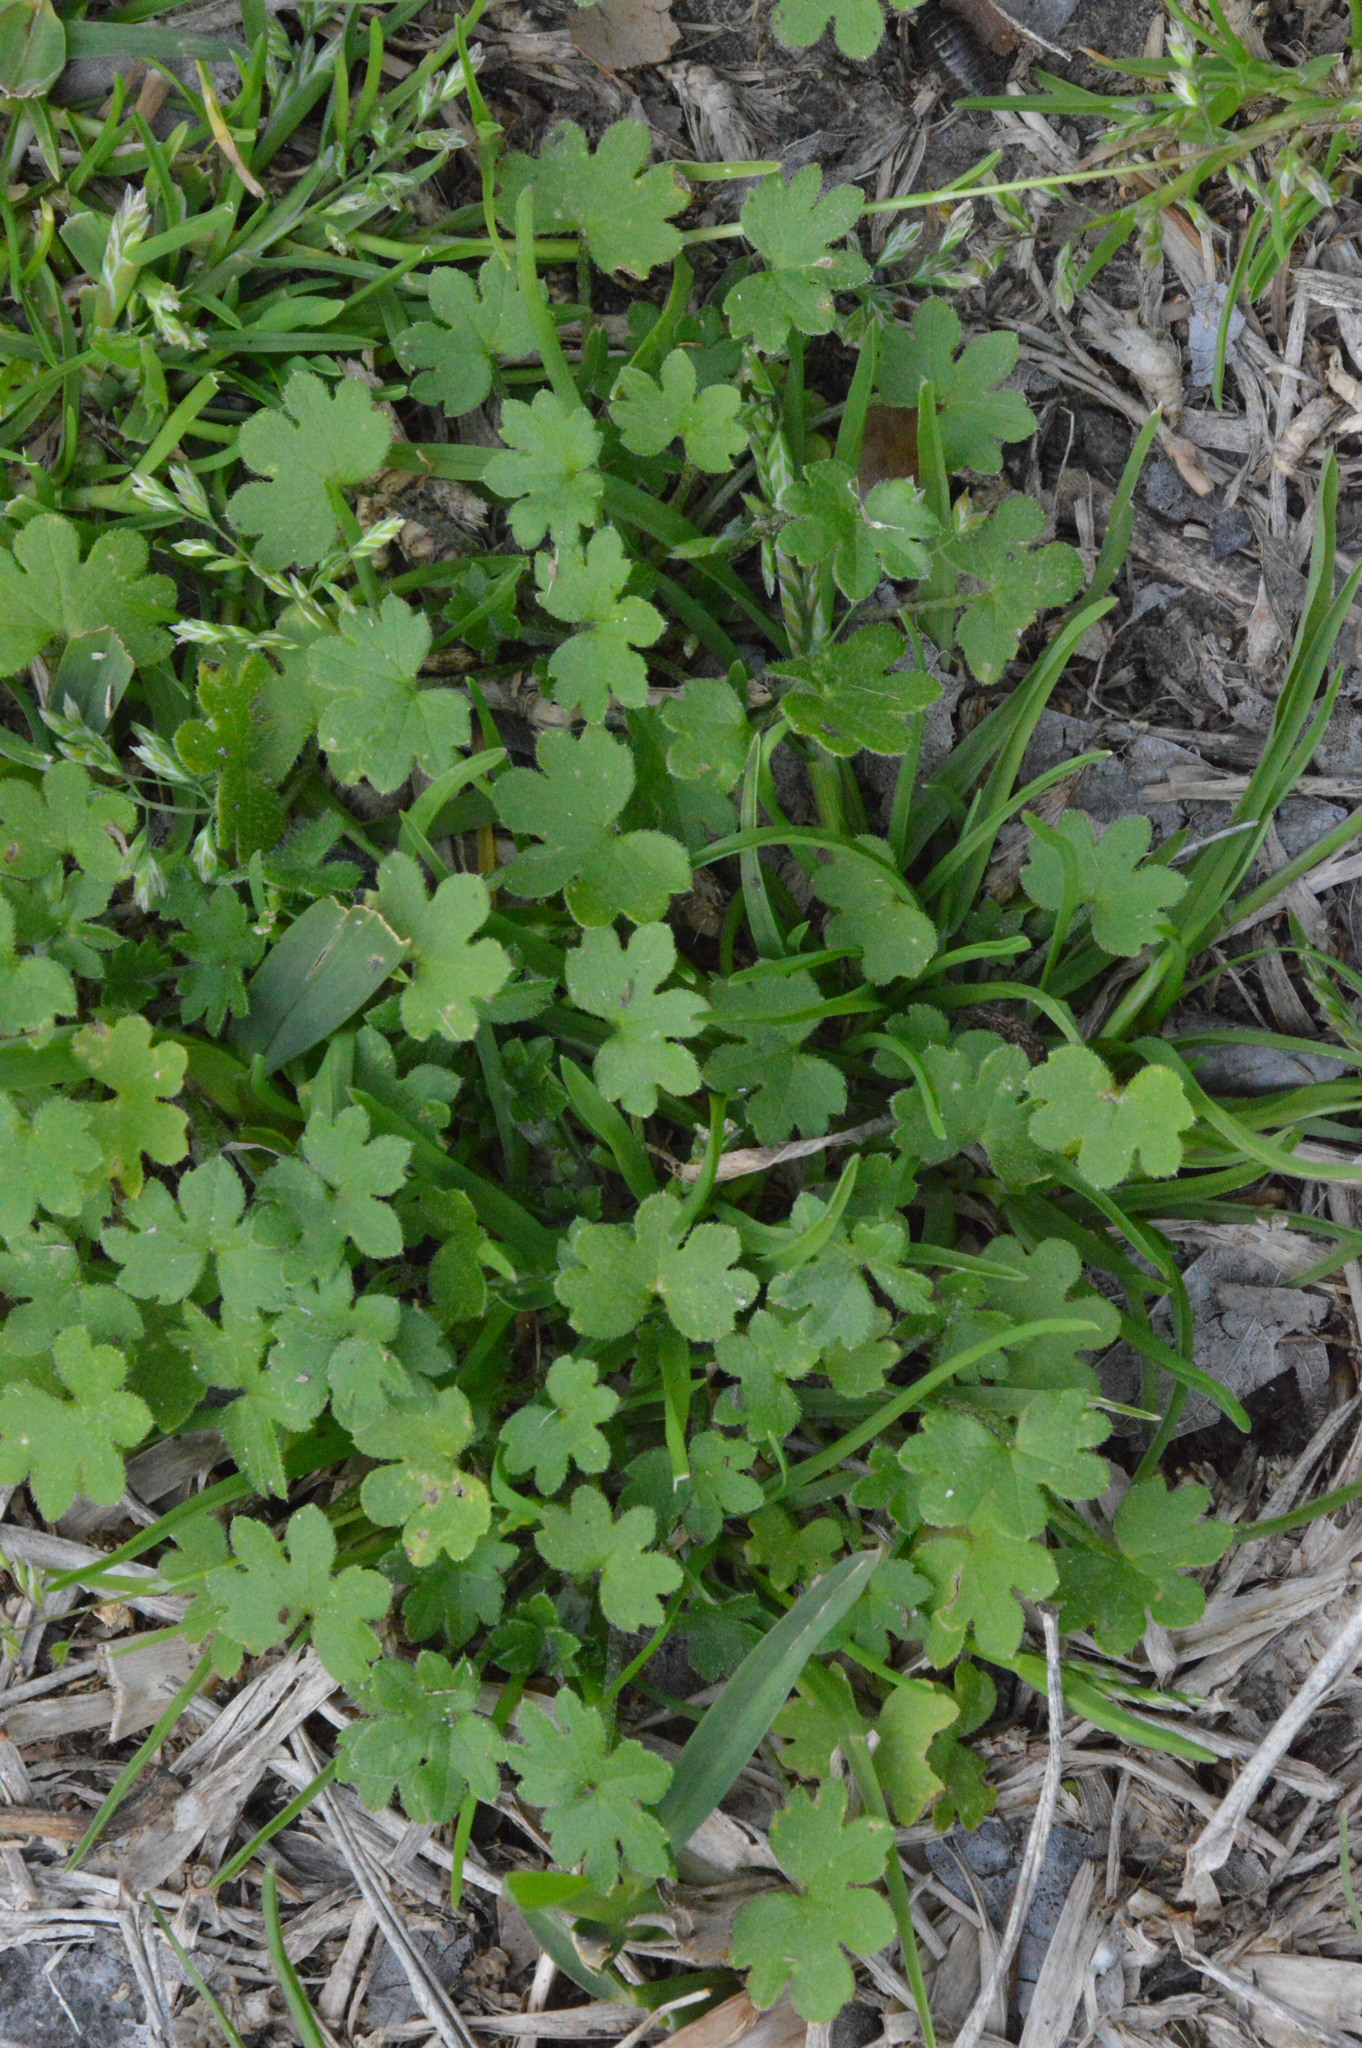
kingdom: Plantae
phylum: Tracheophyta
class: Magnoliopsida
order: Apiales
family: Apiaceae
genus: Bowlesia
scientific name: Bowlesia incana
